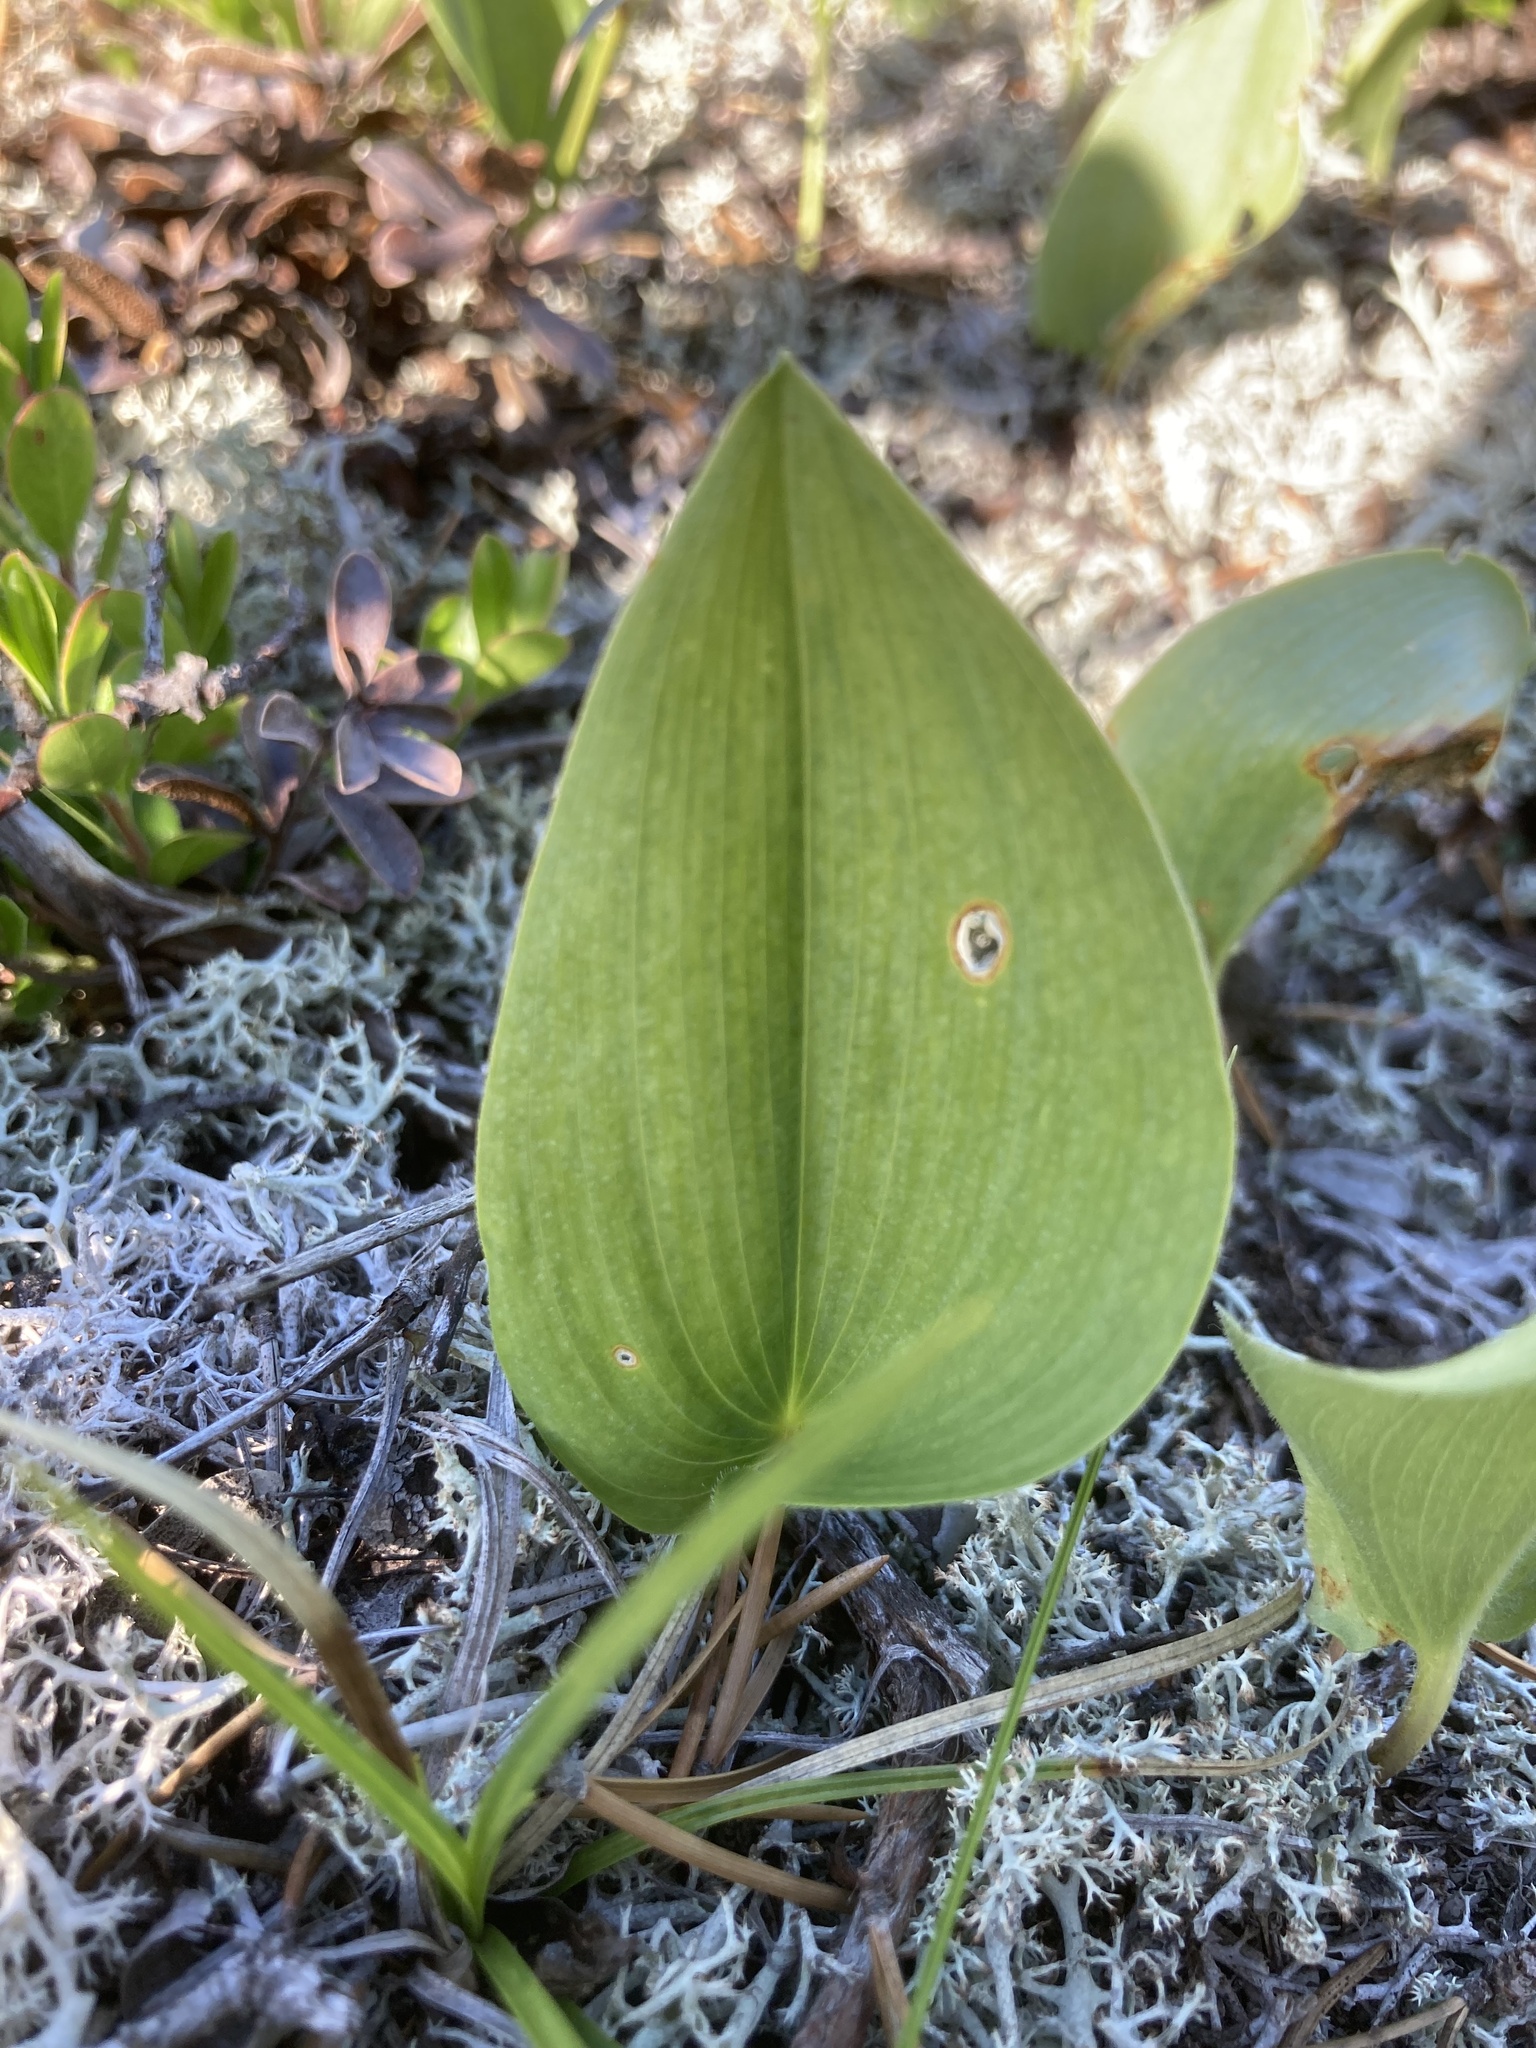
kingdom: Plantae
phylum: Tracheophyta
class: Liliopsida
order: Asparagales
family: Asparagaceae
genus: Maianthemum
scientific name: Maianthemum canadense
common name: False lily-of-the-valley
